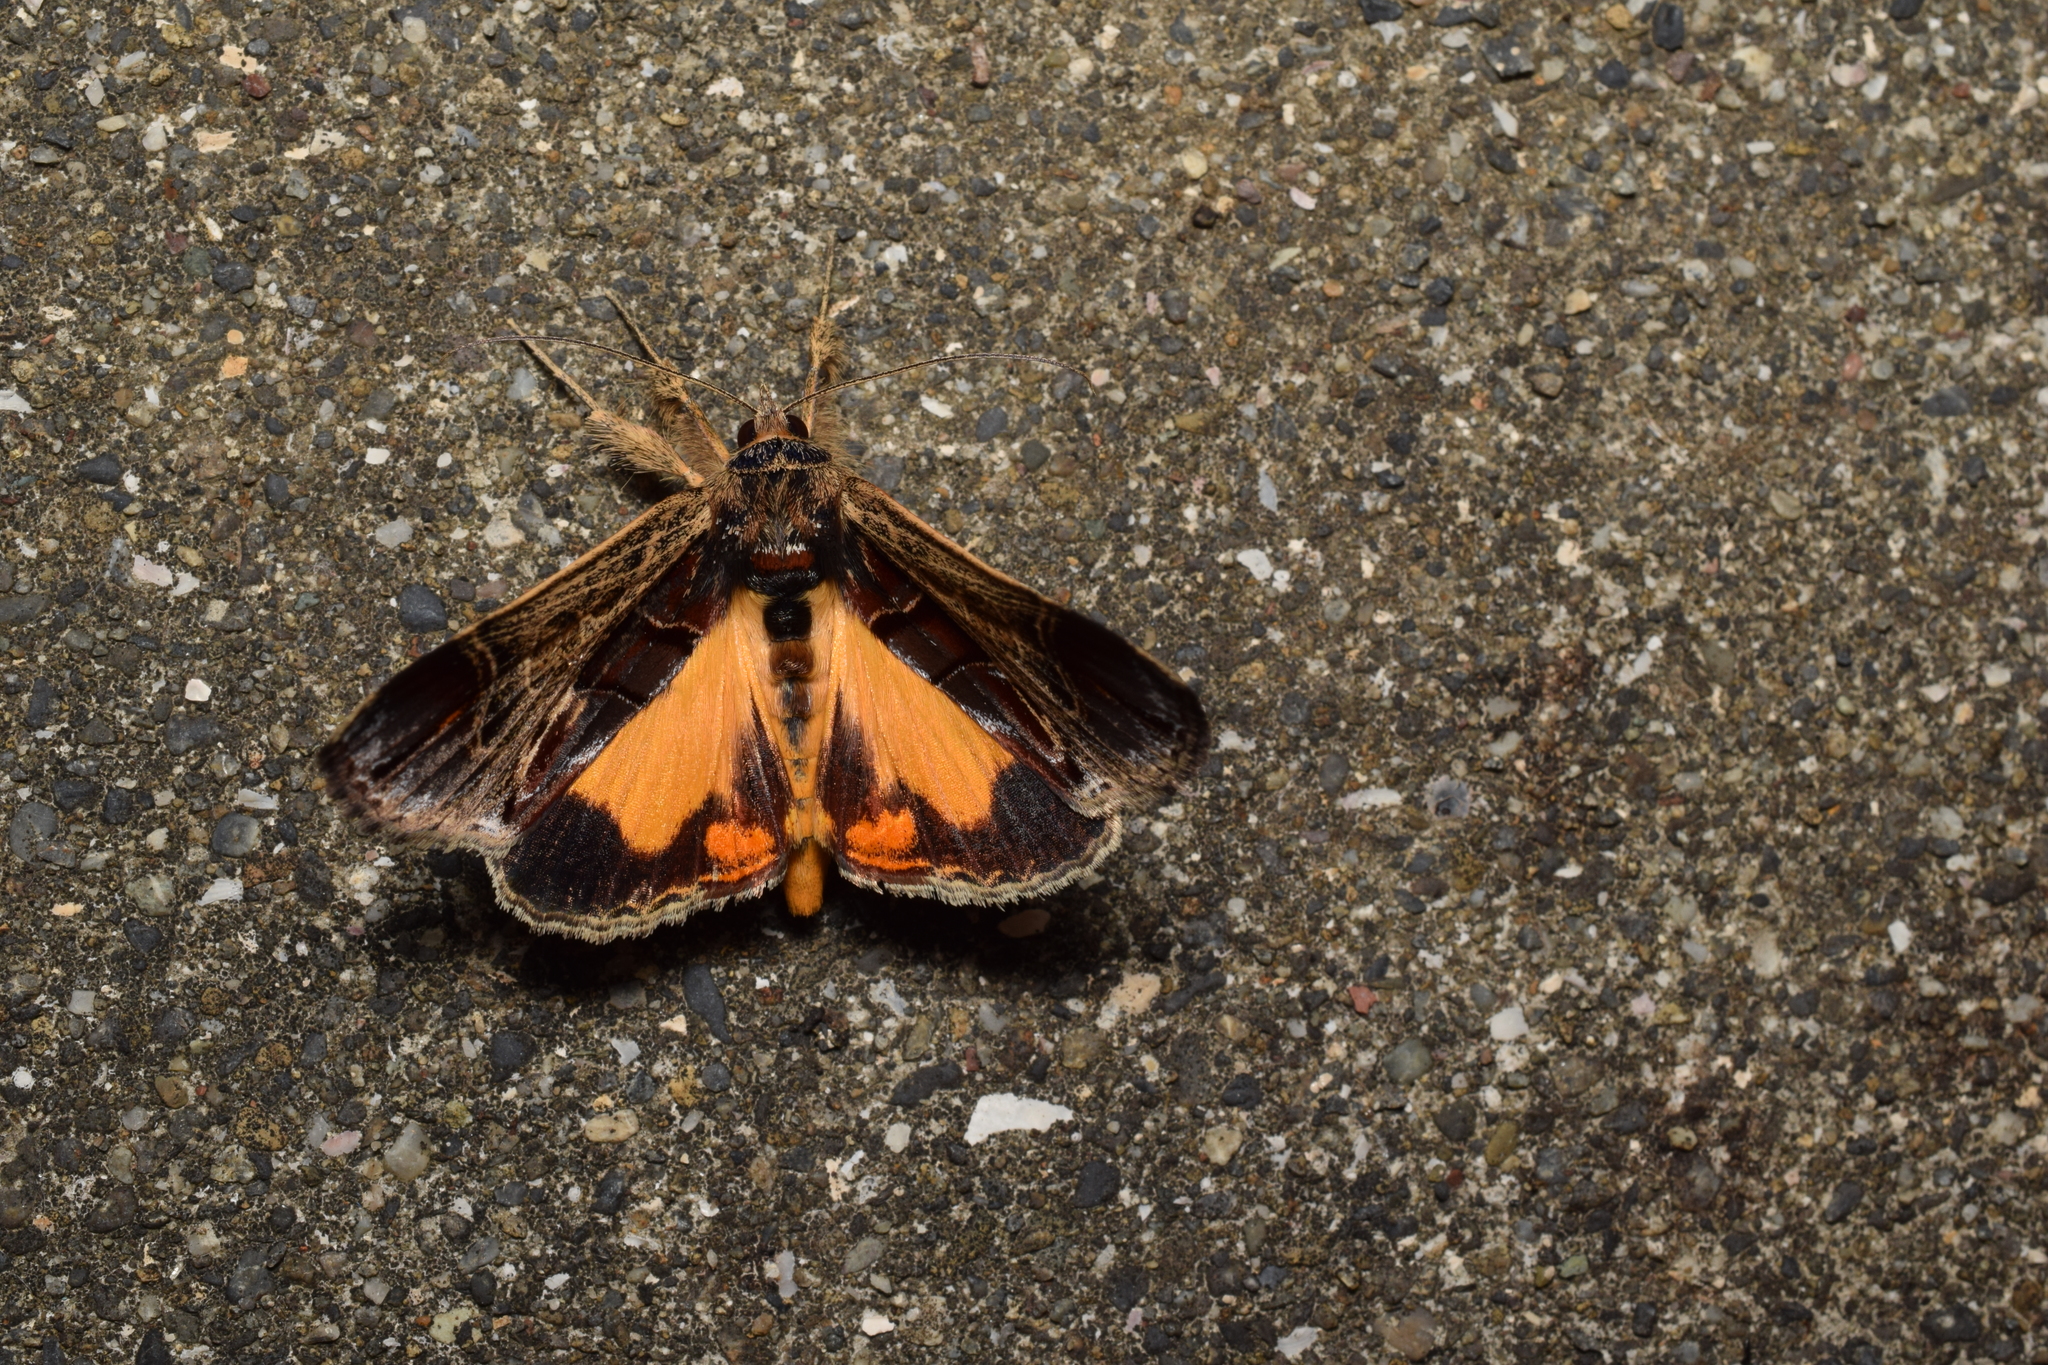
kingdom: Animalia
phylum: Arthropoda
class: Insecta
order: Lepidoptera
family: Noctuidae
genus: Sarbanissa
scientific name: Sarbanissa subflava
